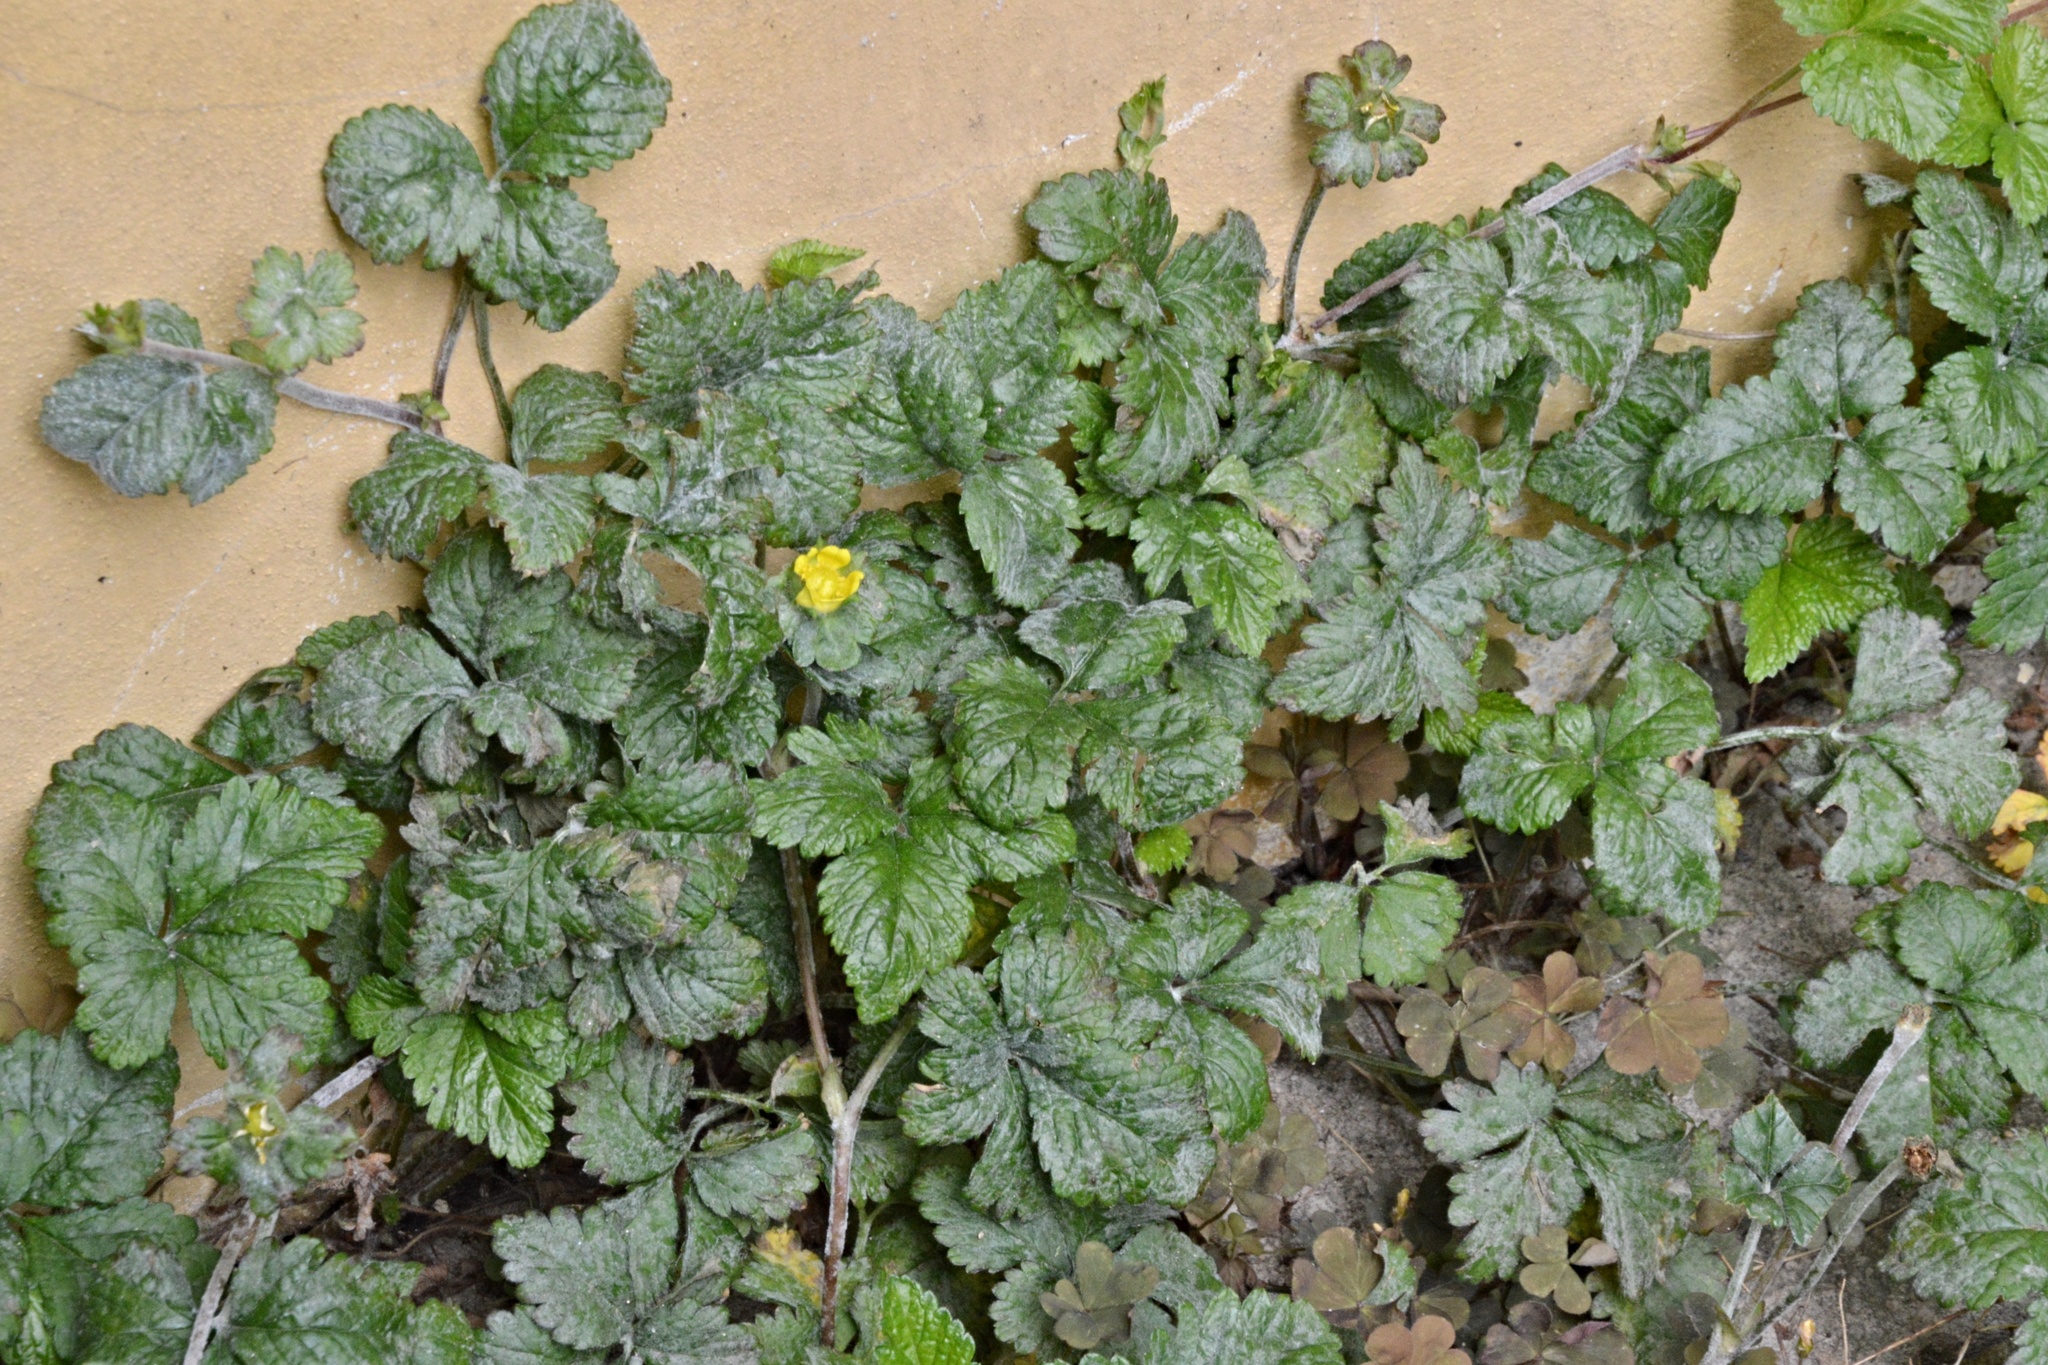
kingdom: Plantae
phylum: Tracheophyta
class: Magnoliopsida
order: Rosales
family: Rosaceae
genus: Potentilla
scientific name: Potentilla indica
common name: Yellow-flowered strawberry
